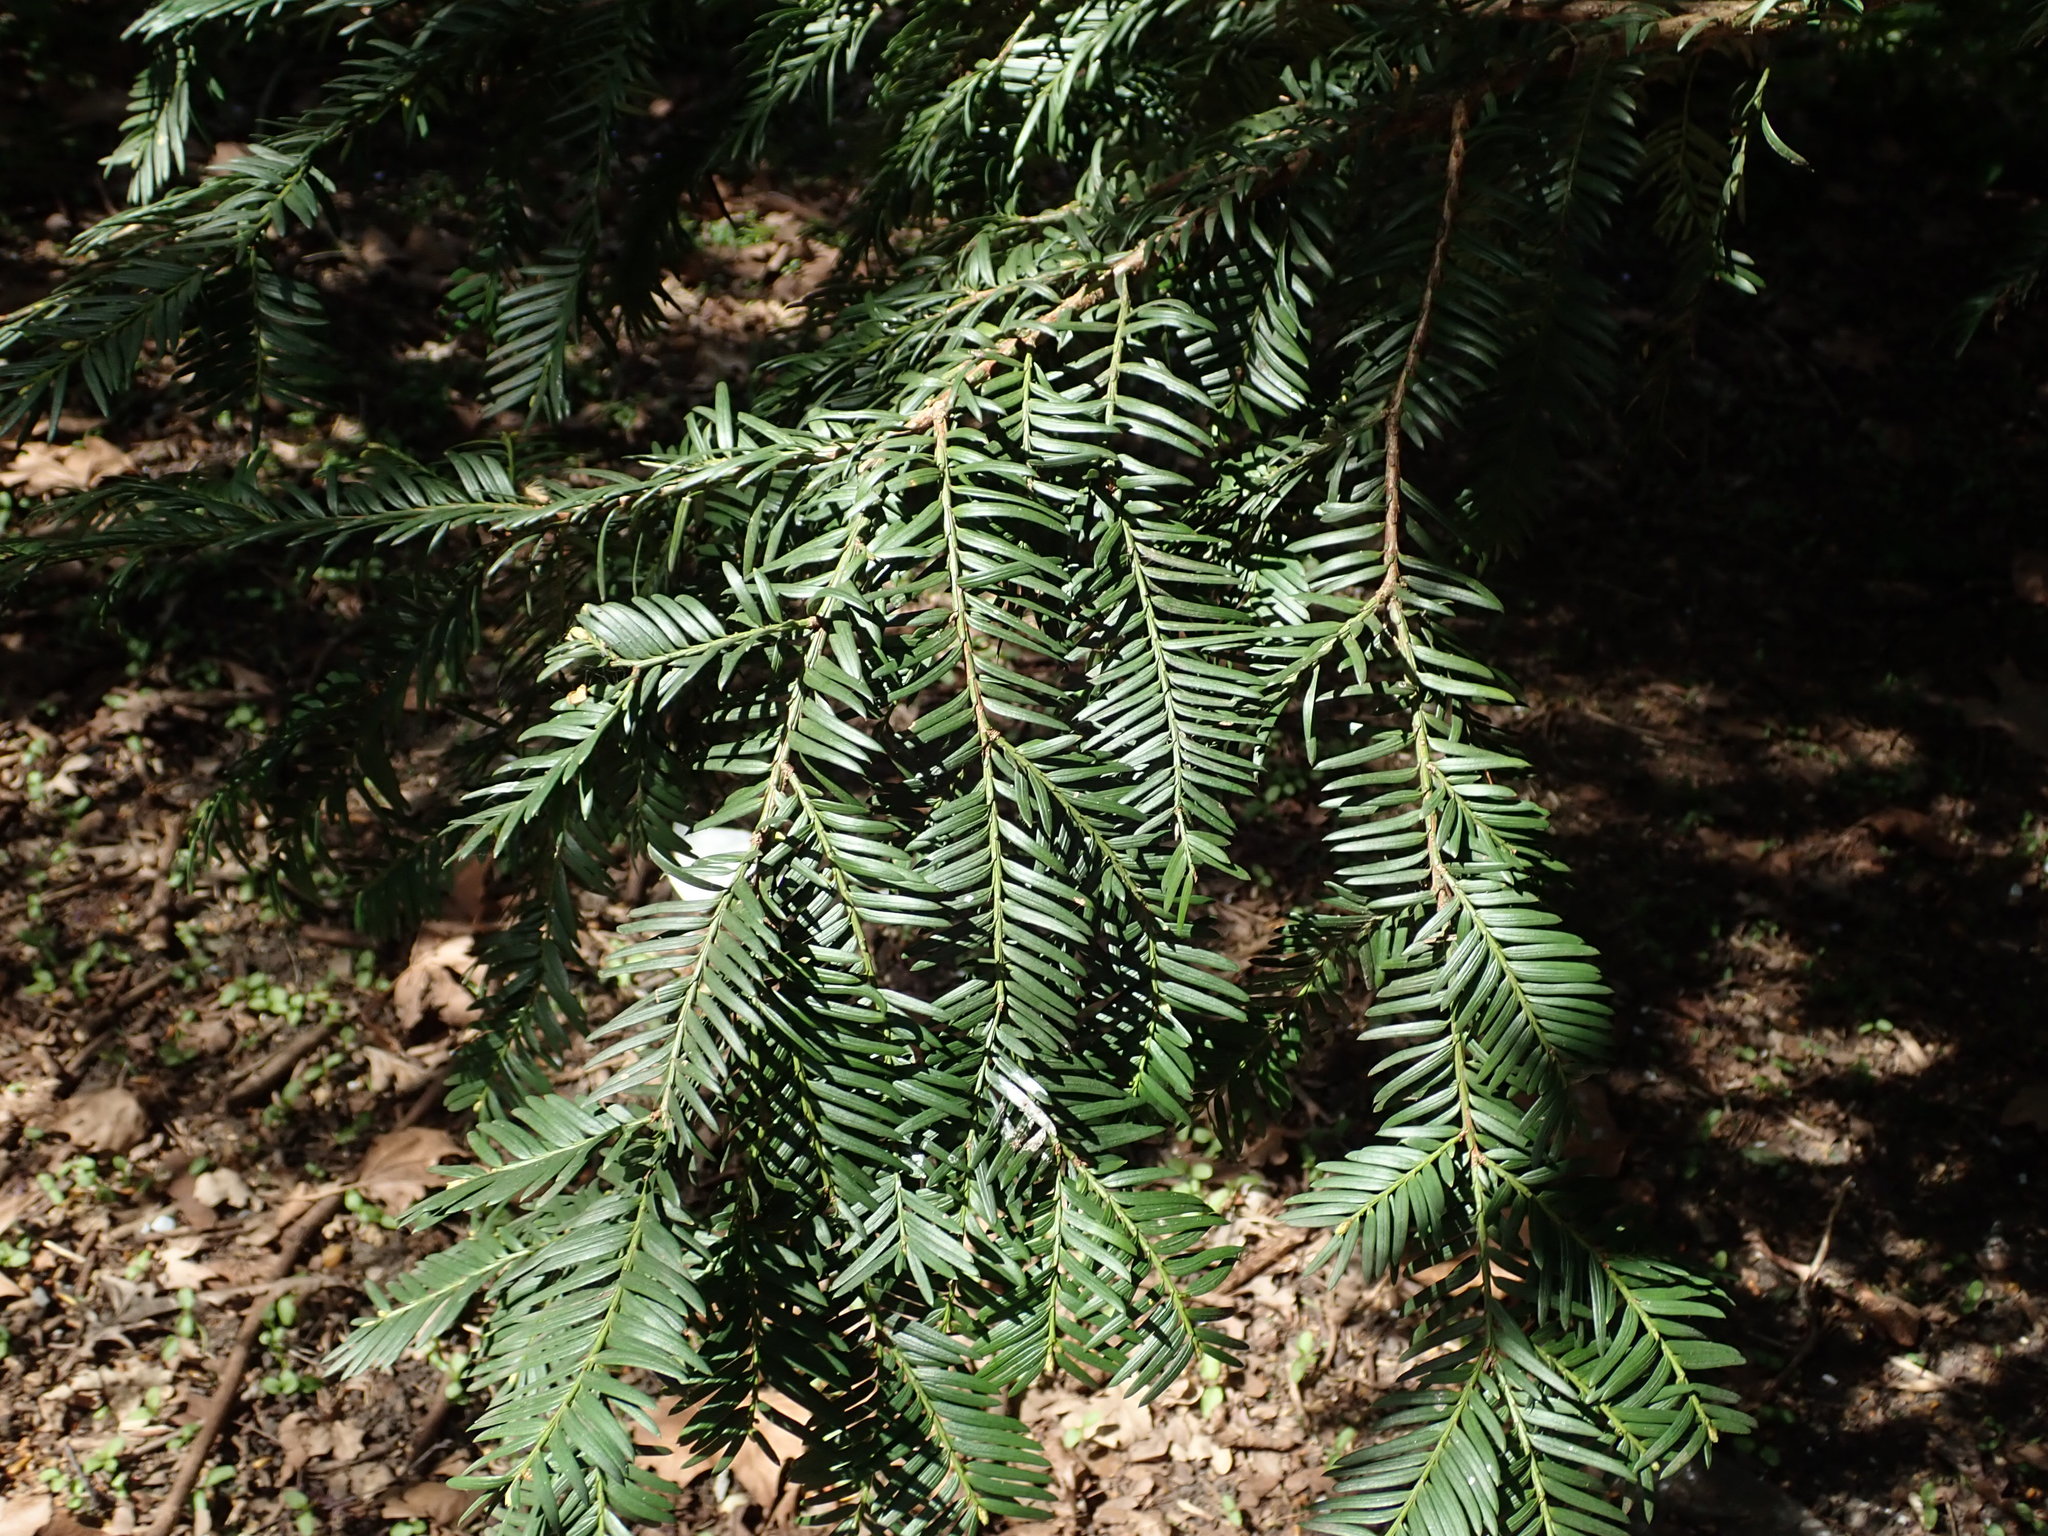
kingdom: Plantae
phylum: Tracheophyta
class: Pinopsida
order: Pinales
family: Taxaceae
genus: Taxus
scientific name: Taxus baccata
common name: Yew
